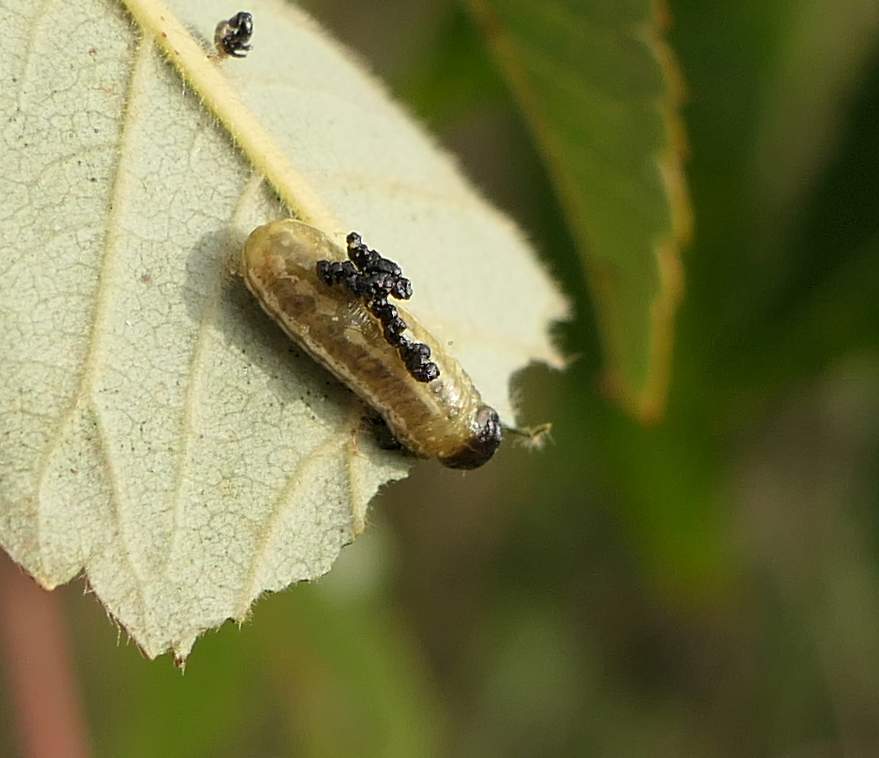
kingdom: Animalia
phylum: Arthropoda
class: Insecta
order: Coleoptera
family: Chrysomelidae
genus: Blepharida
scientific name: Blepharida rhois
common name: Sumac flea beetle
